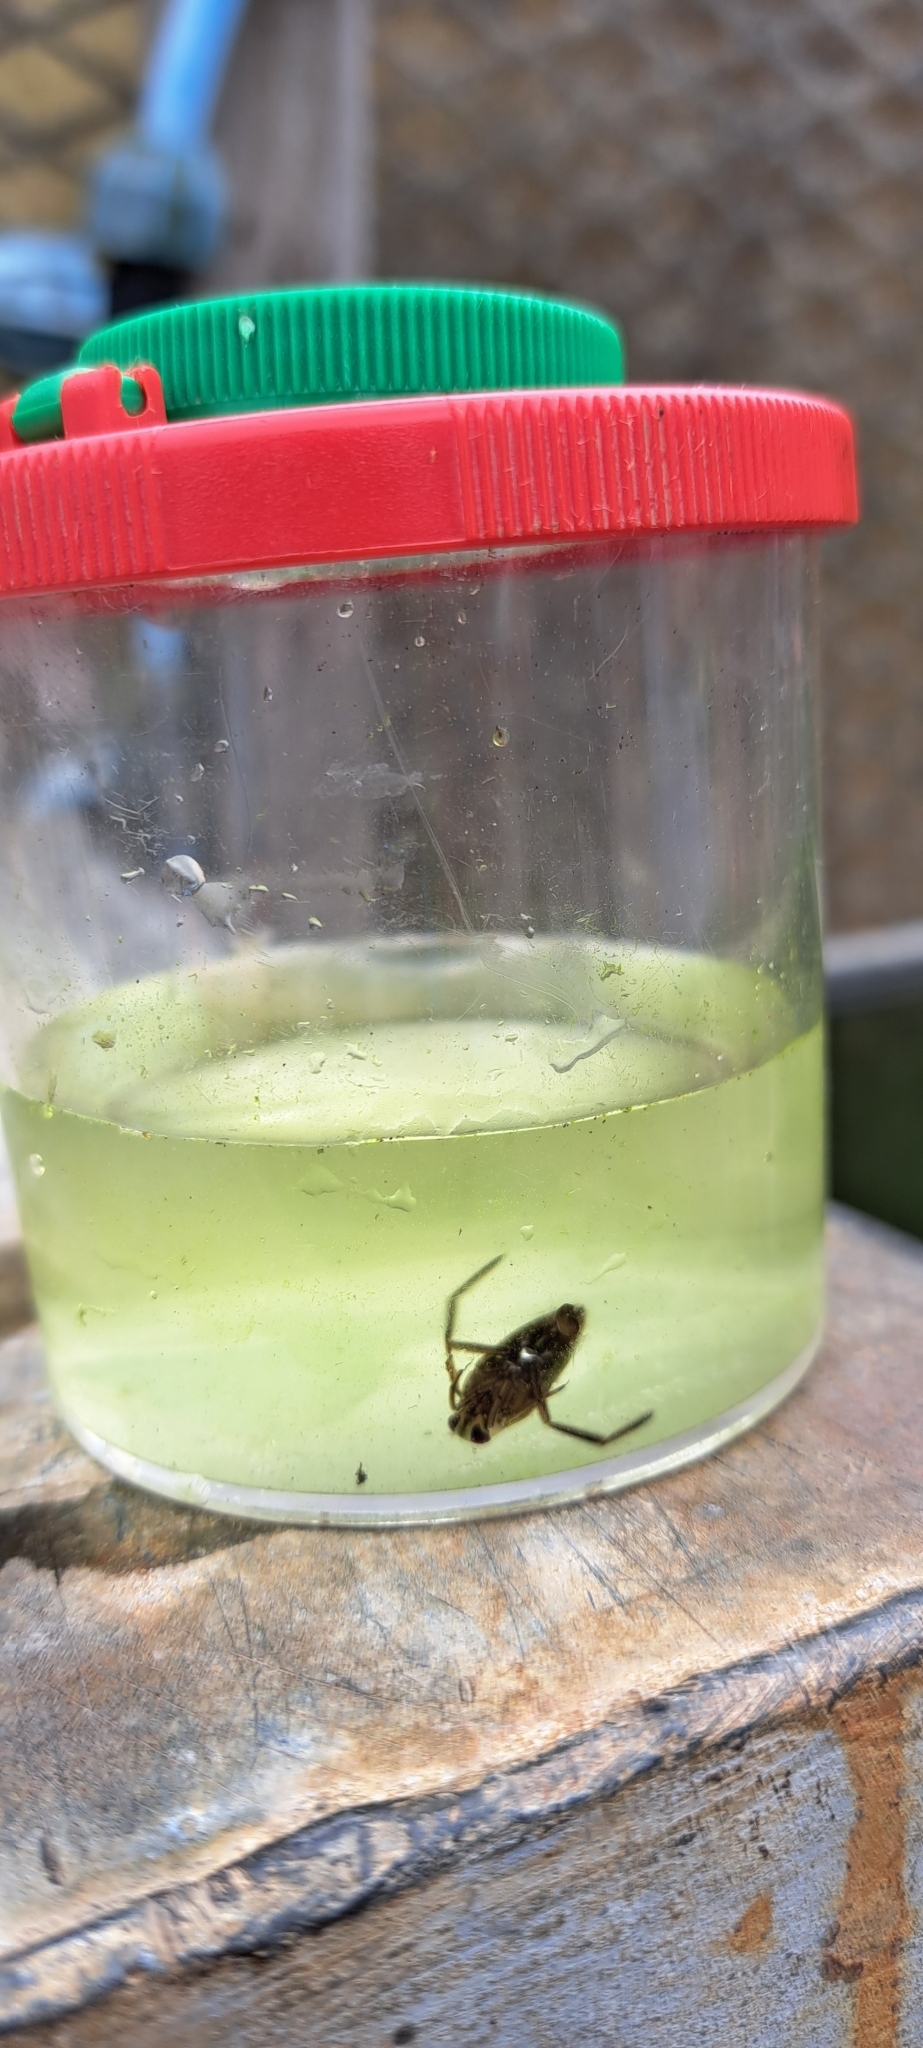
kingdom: Animalia
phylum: Arthropoda
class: Insecta
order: Hemiptera
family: Notonectidae
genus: Notonecta
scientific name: Notonecta
